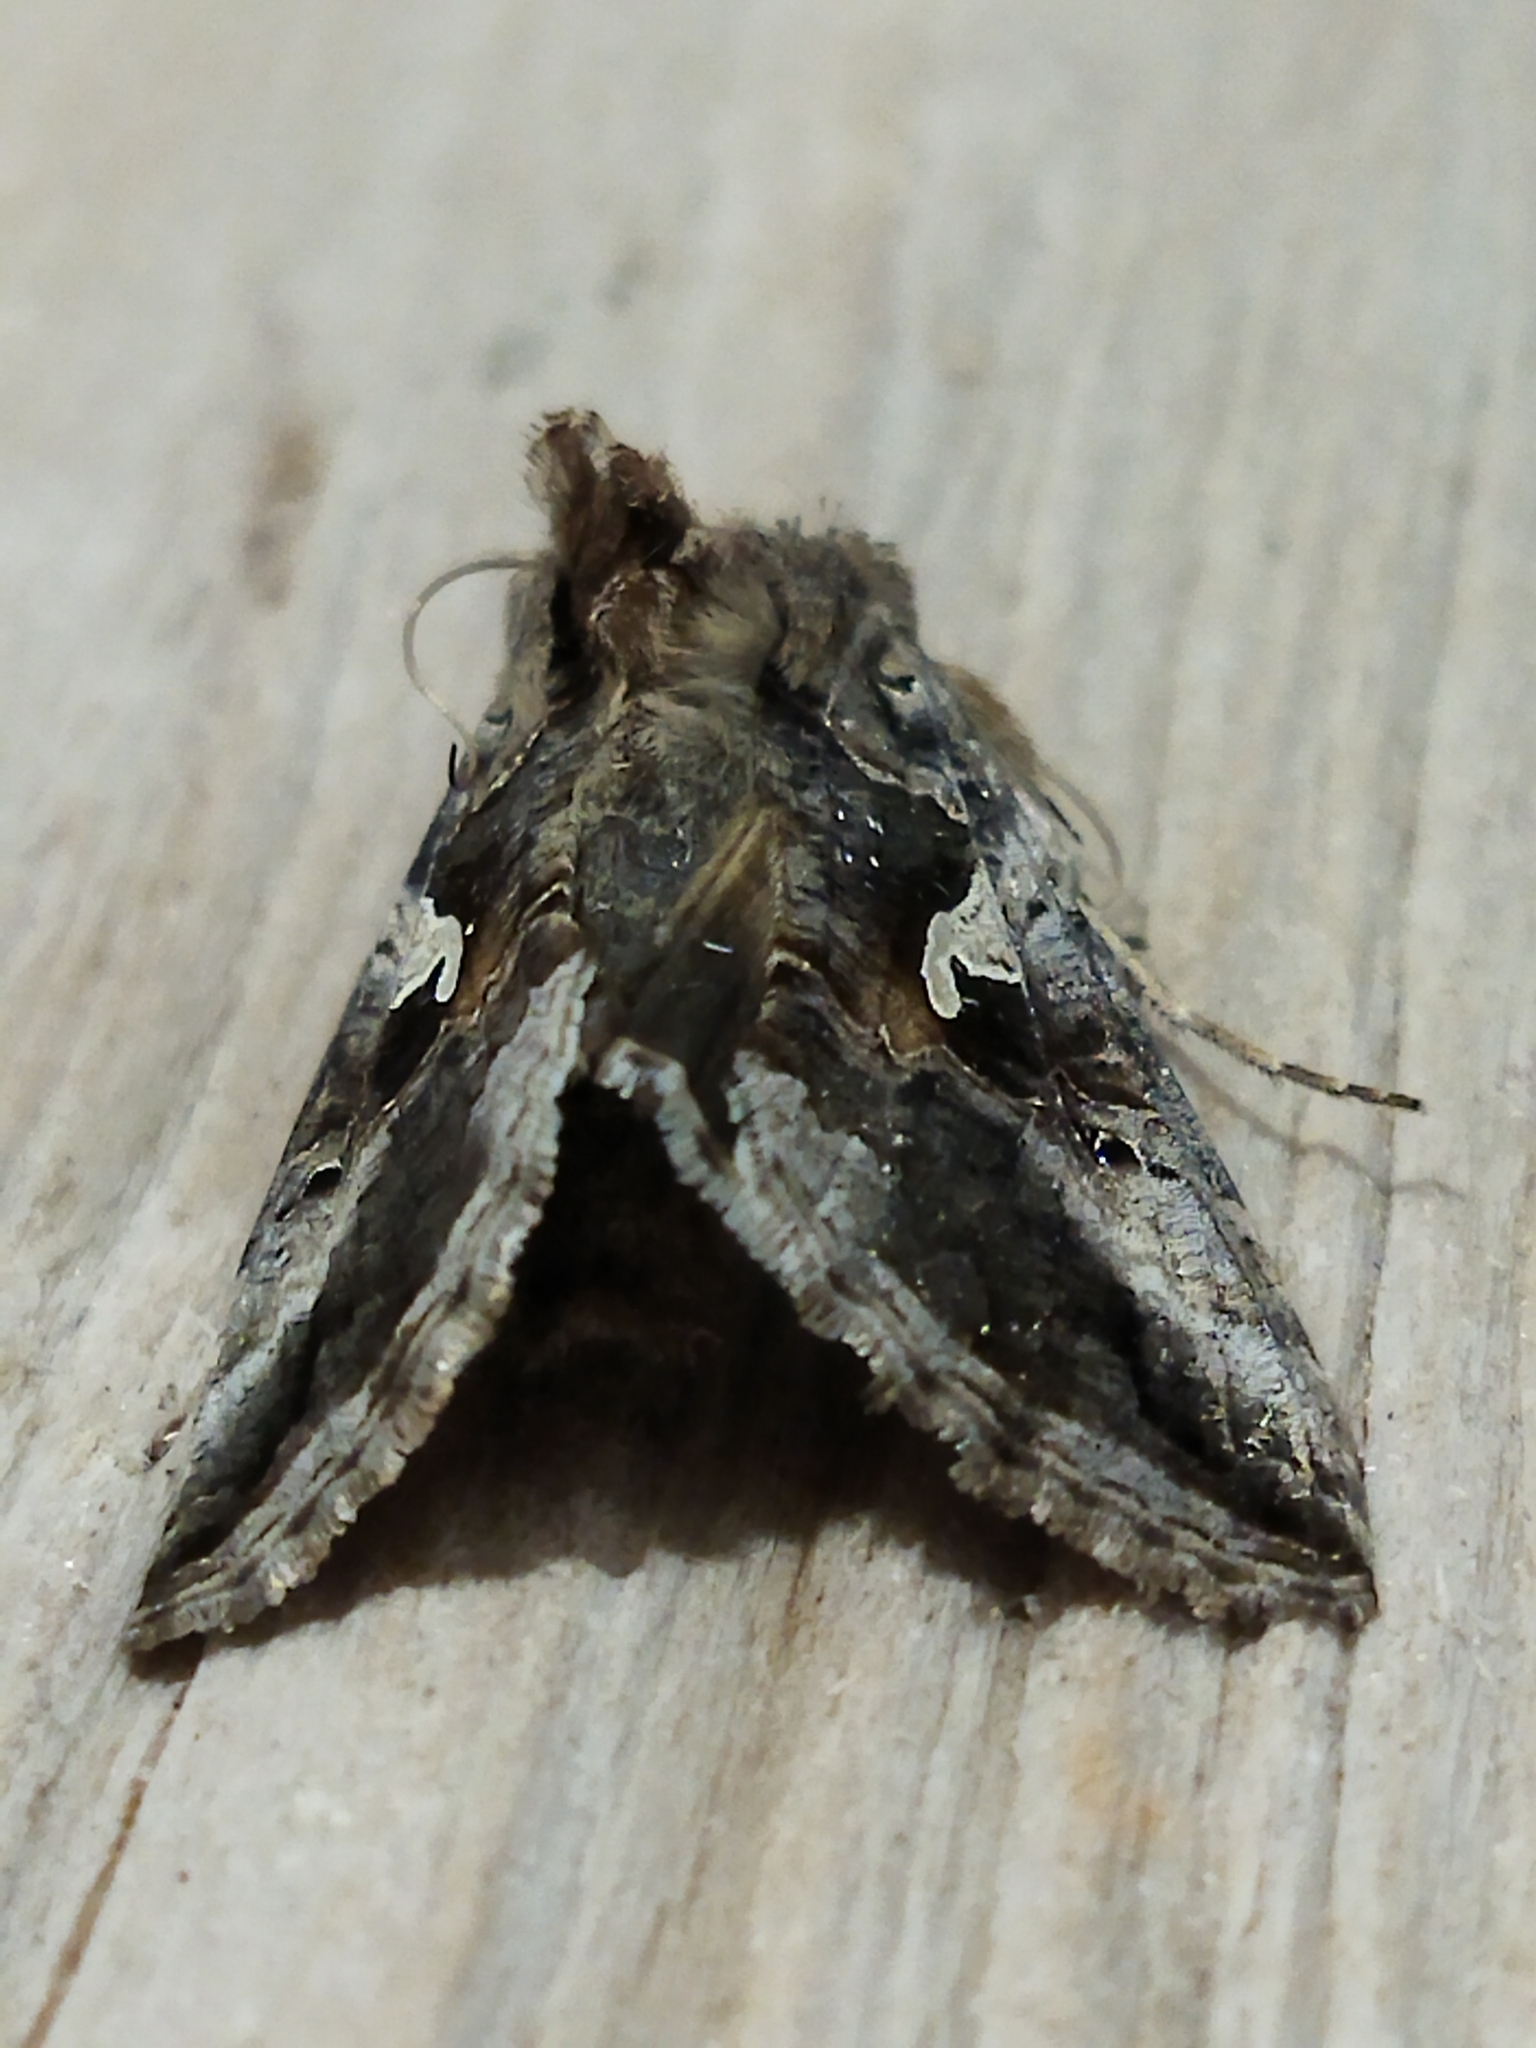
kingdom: Animalia
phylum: Arthropoda
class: Insecta
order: Lepidoptera
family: Noctuidae
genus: Autographa
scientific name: Autographa gamma
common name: Silver y
